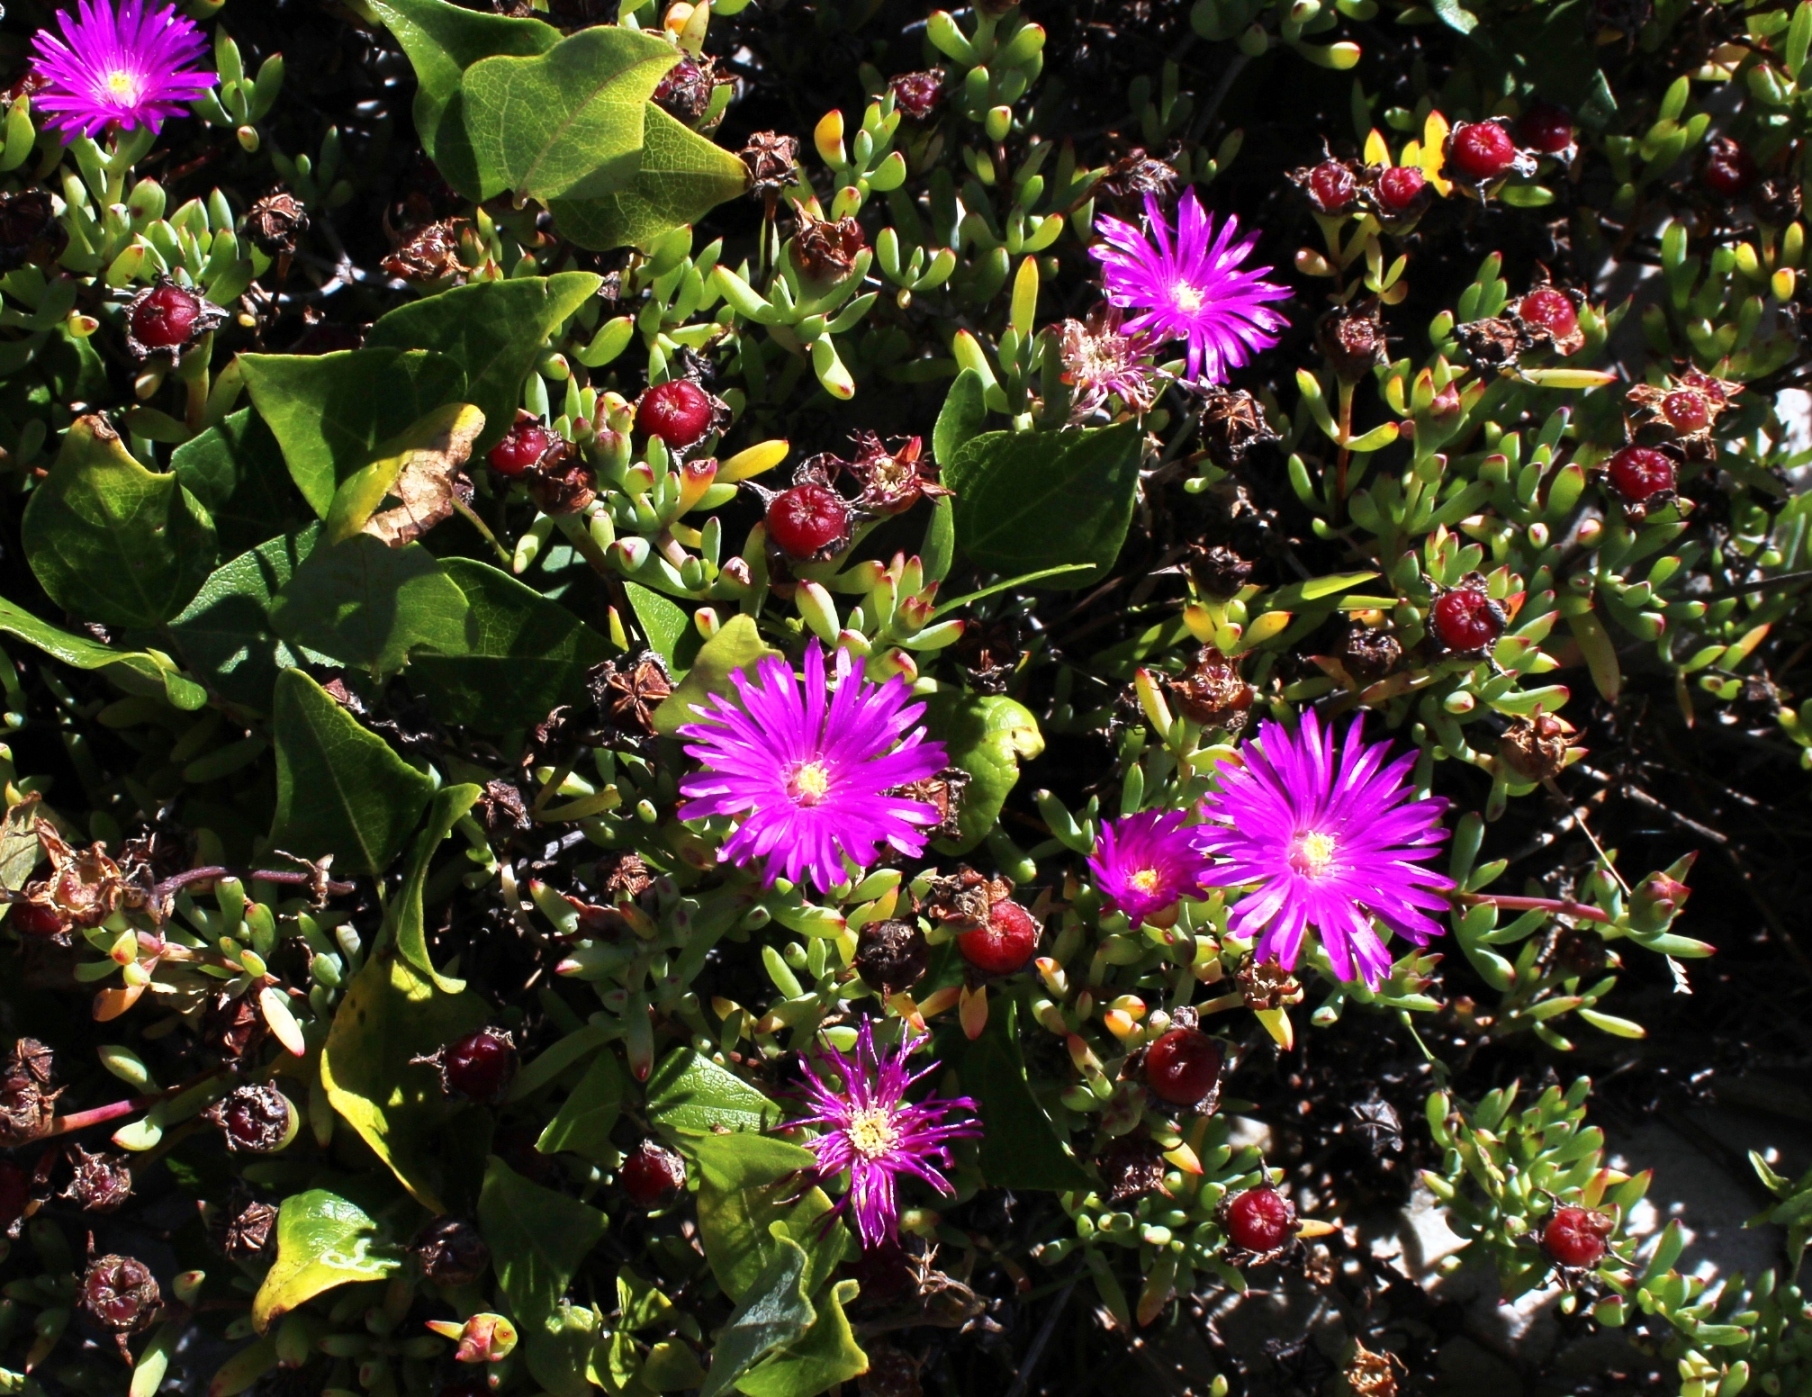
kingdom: Plantae
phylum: Tracheophyta
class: Magnoliopsida
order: Caryophyllales
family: Aizoaceae
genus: Lampranthus
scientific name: Lampranthus pauciflorus
